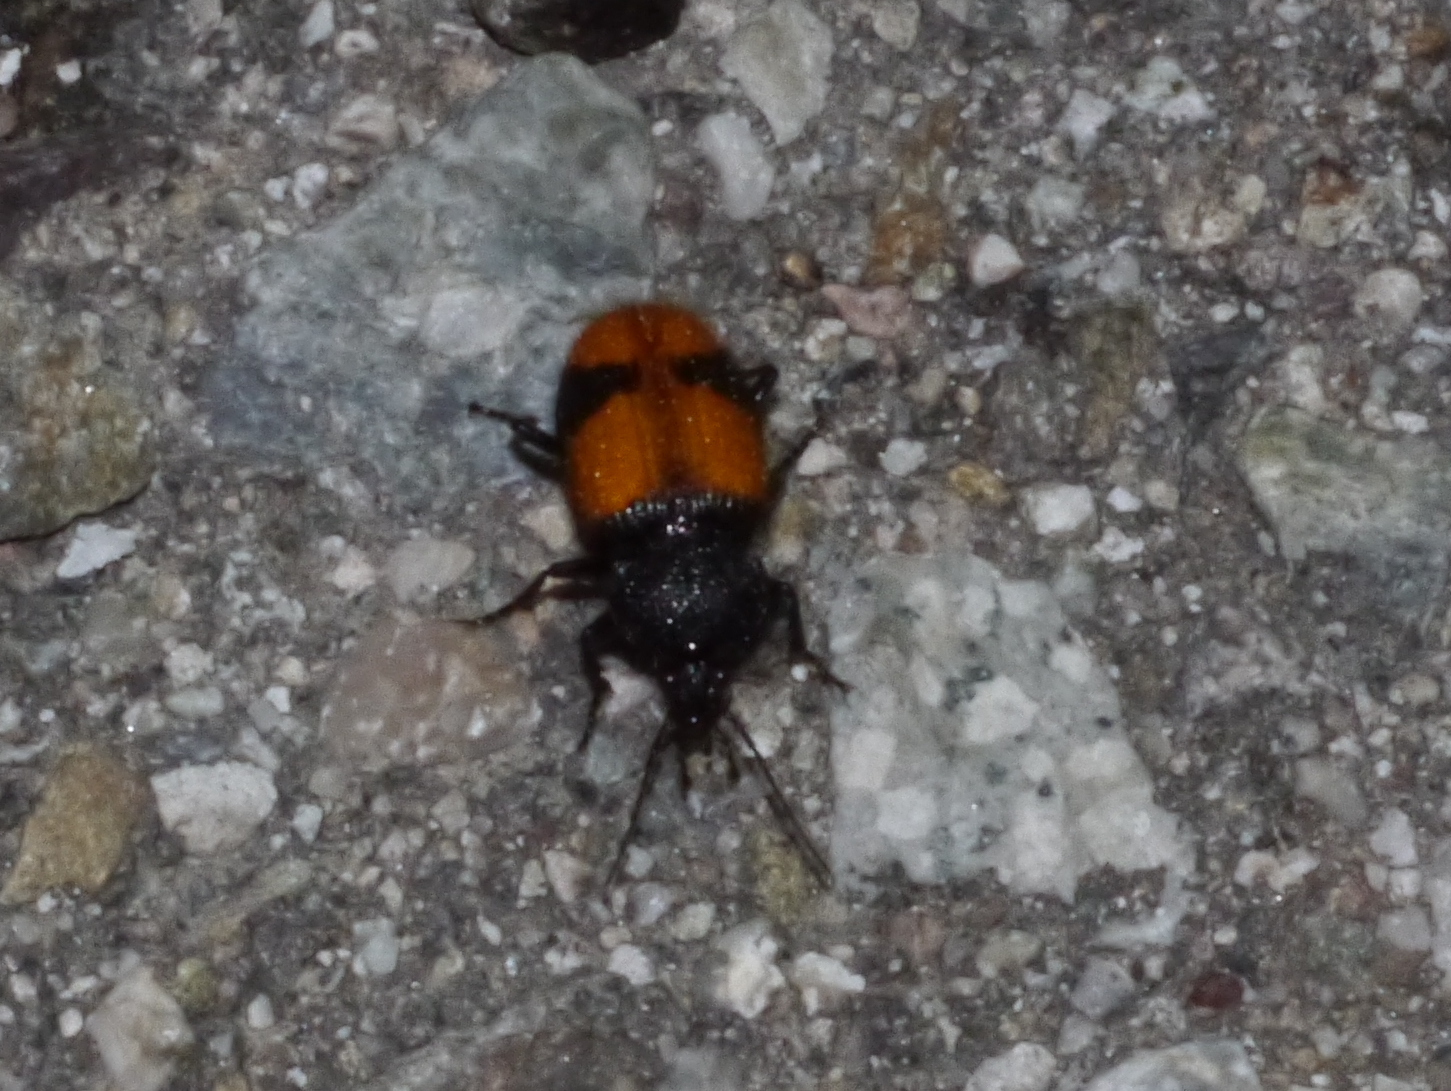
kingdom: Animalia
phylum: Arthropoda
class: Insecta
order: Coleoptera
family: Carabidae
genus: Panagaeus
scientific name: Panagaeus sallei
